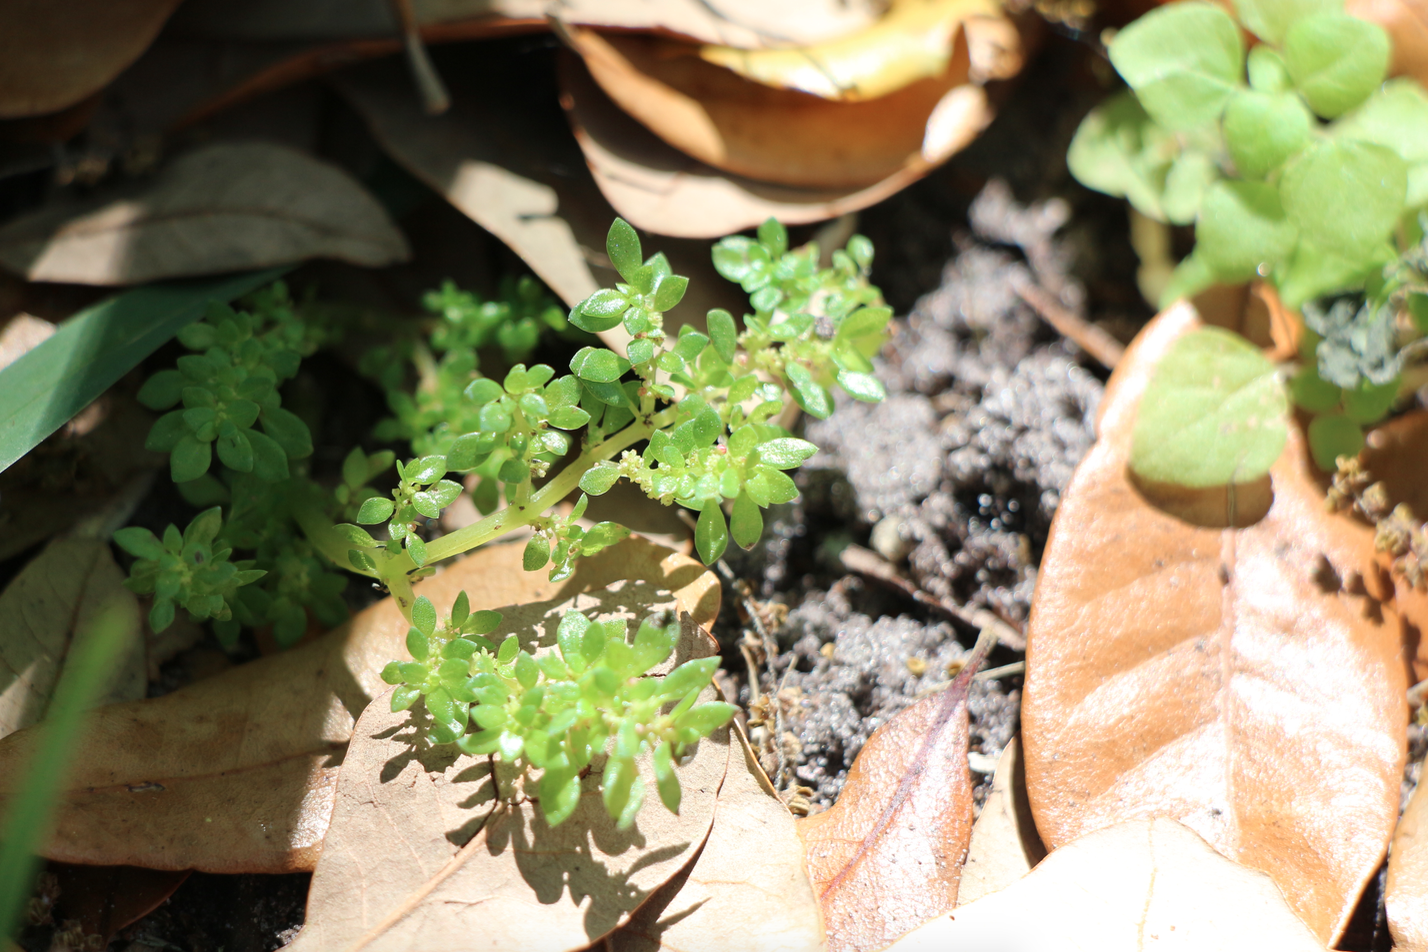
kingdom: Plantae
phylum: Tracheophyta
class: Magnoliopsida
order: Rosales
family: Urticaceae
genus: Pilea
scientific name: Pilea microphylla
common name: Artillery-plant
